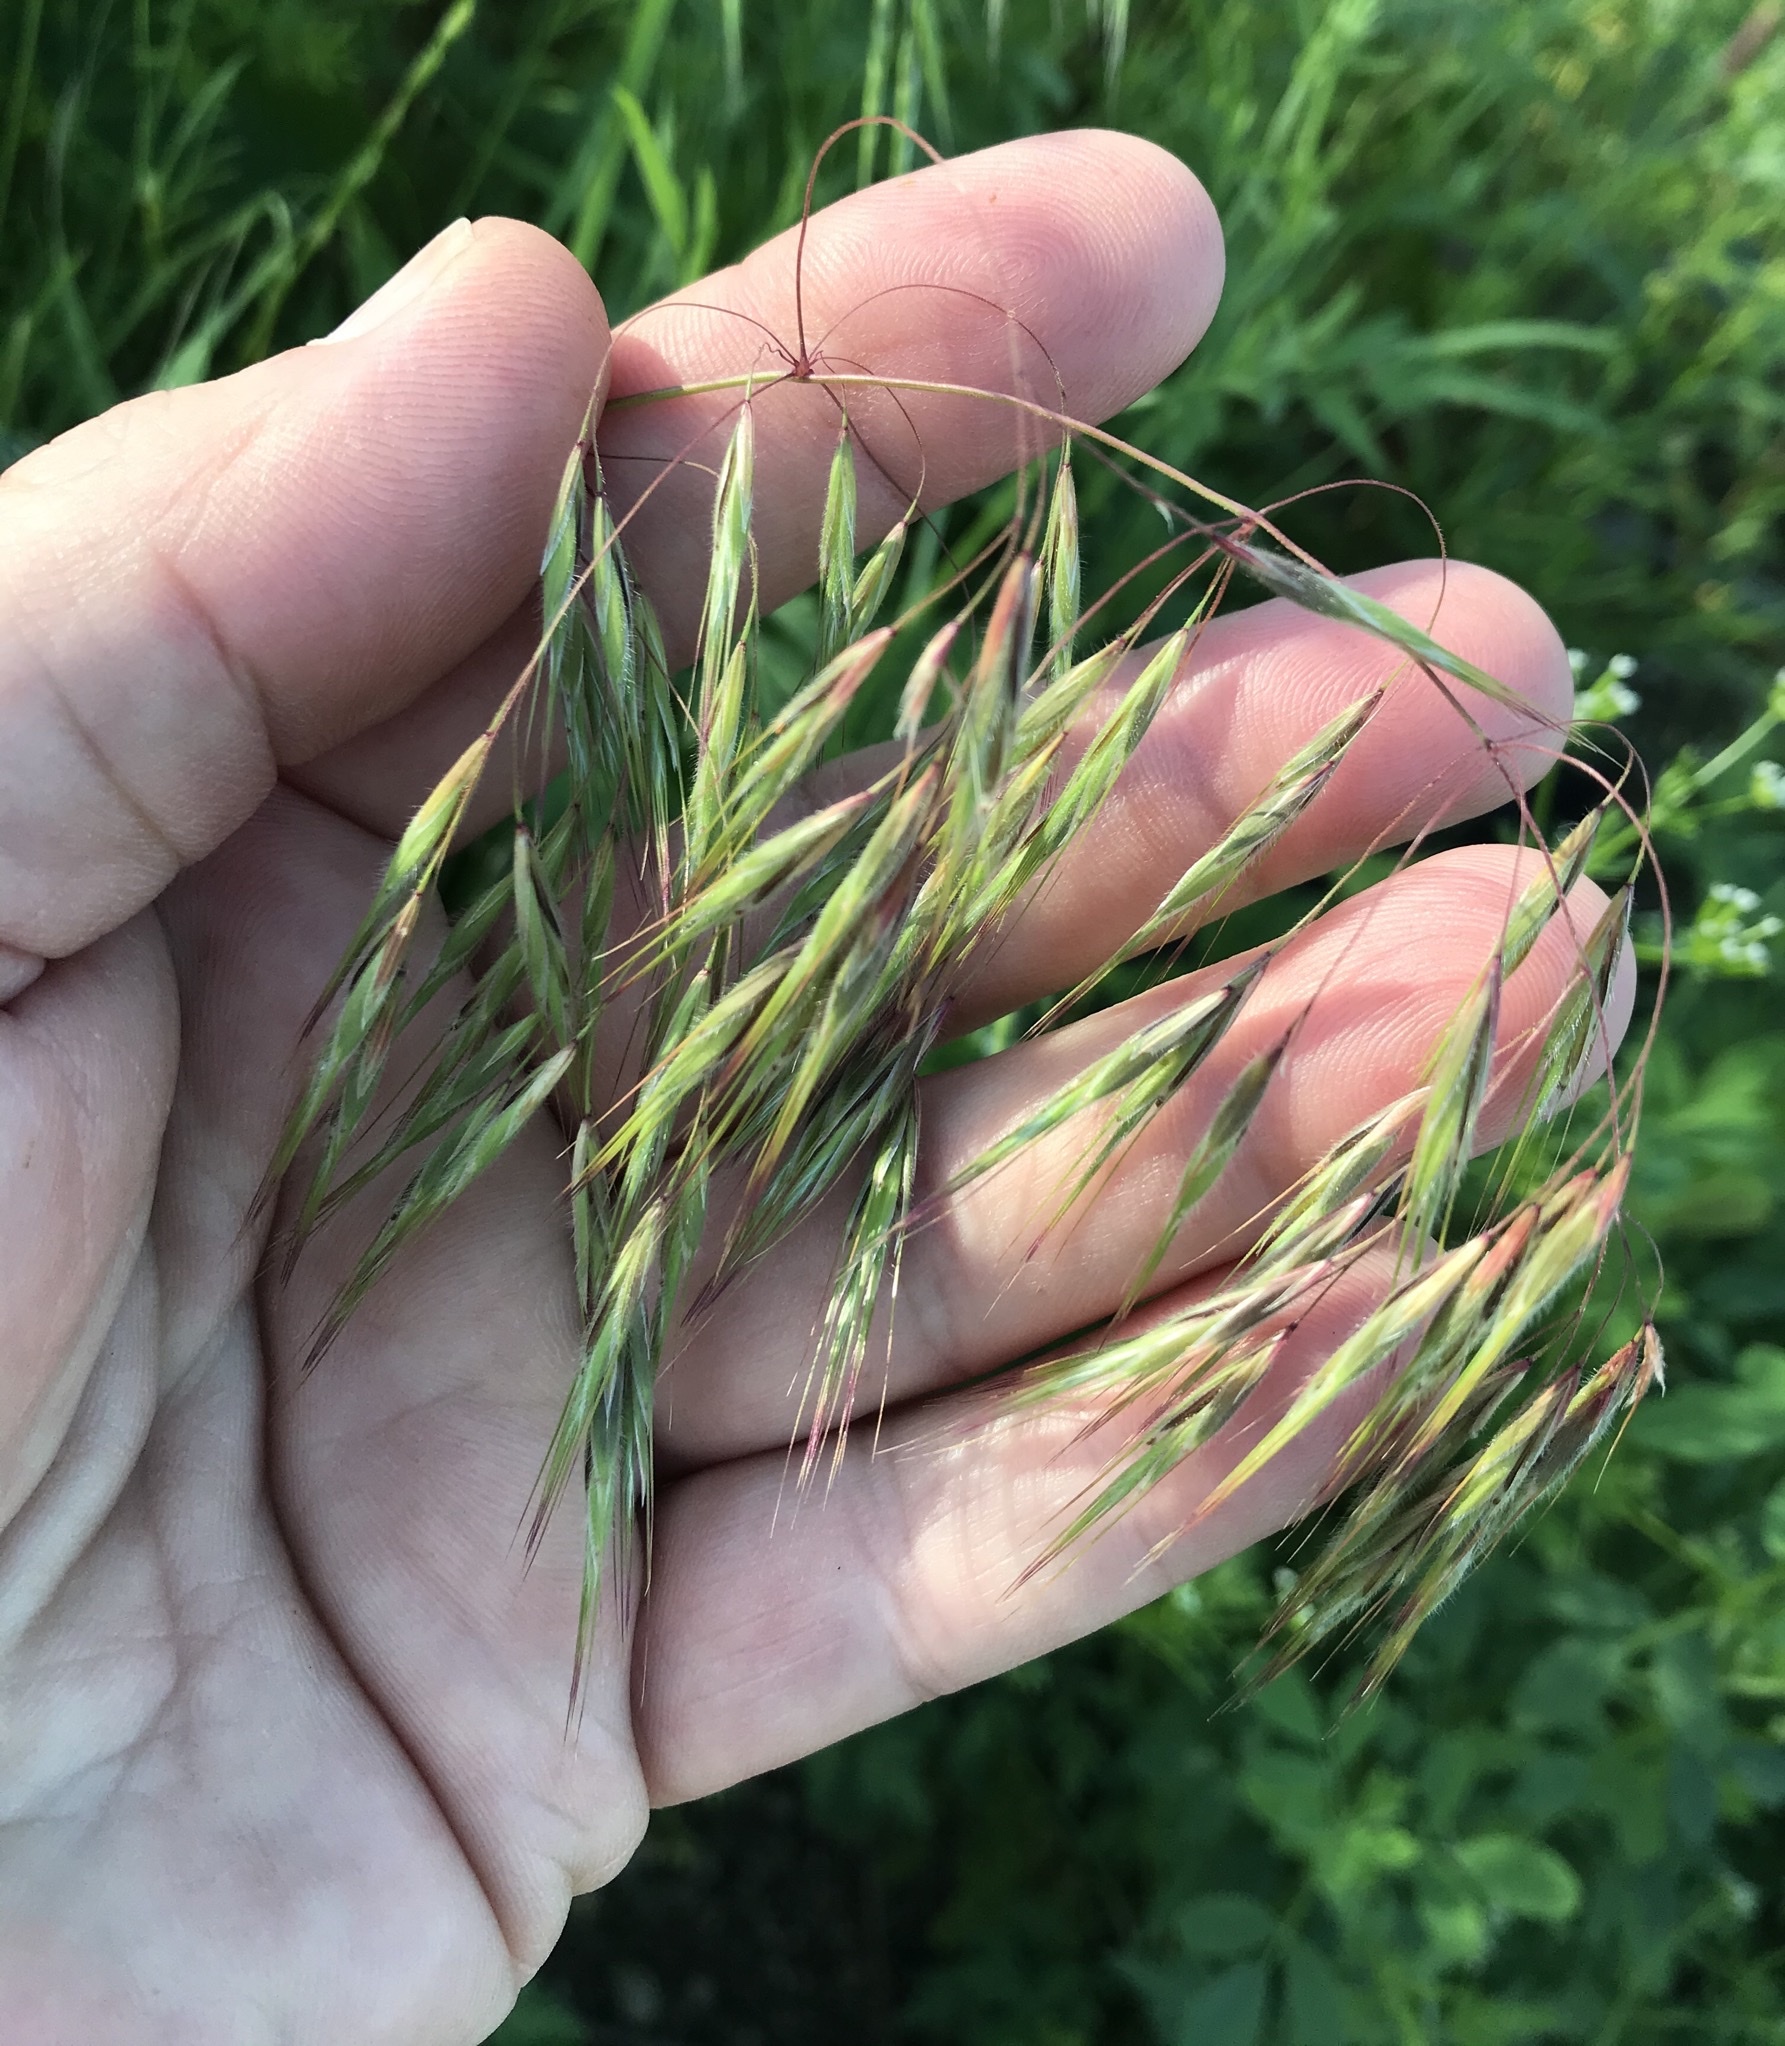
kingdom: Plantae
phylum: Tracheophyta
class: Liliopsida
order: Poales
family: Poaceae
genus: Bromus
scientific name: Bromus tectorum
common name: Cheatgrass
